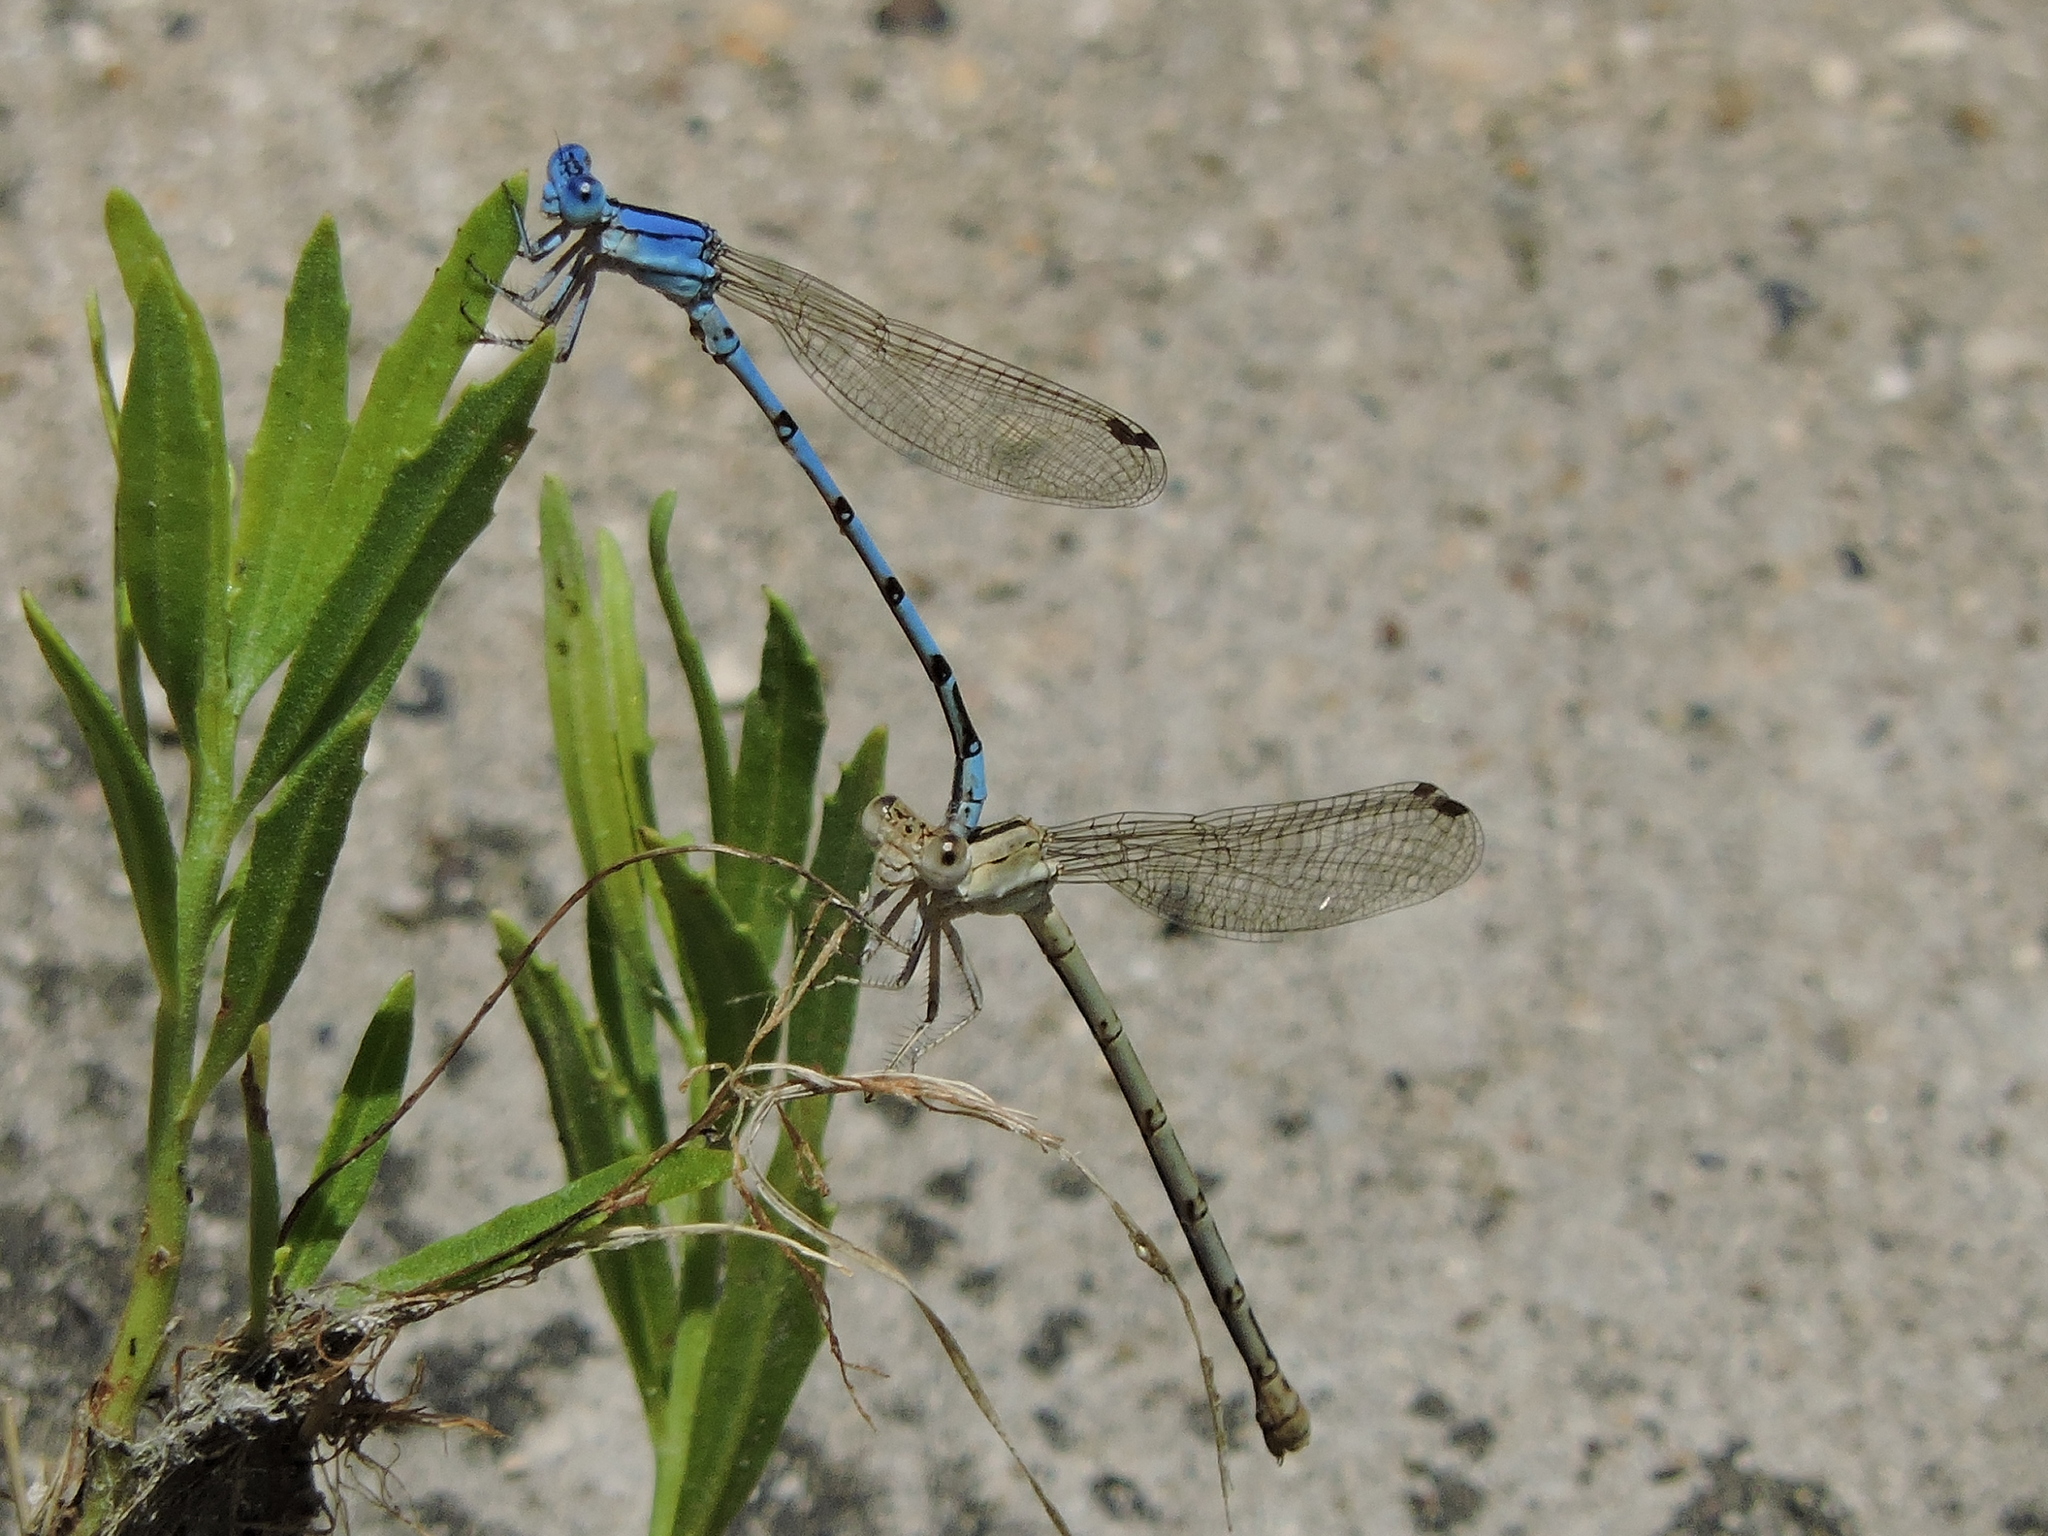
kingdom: Animalia
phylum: Arthropoda
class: Insecta
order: Odonata
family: Coenagrionidae
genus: Argia
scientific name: Argia nahuana
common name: Aztec dancer
